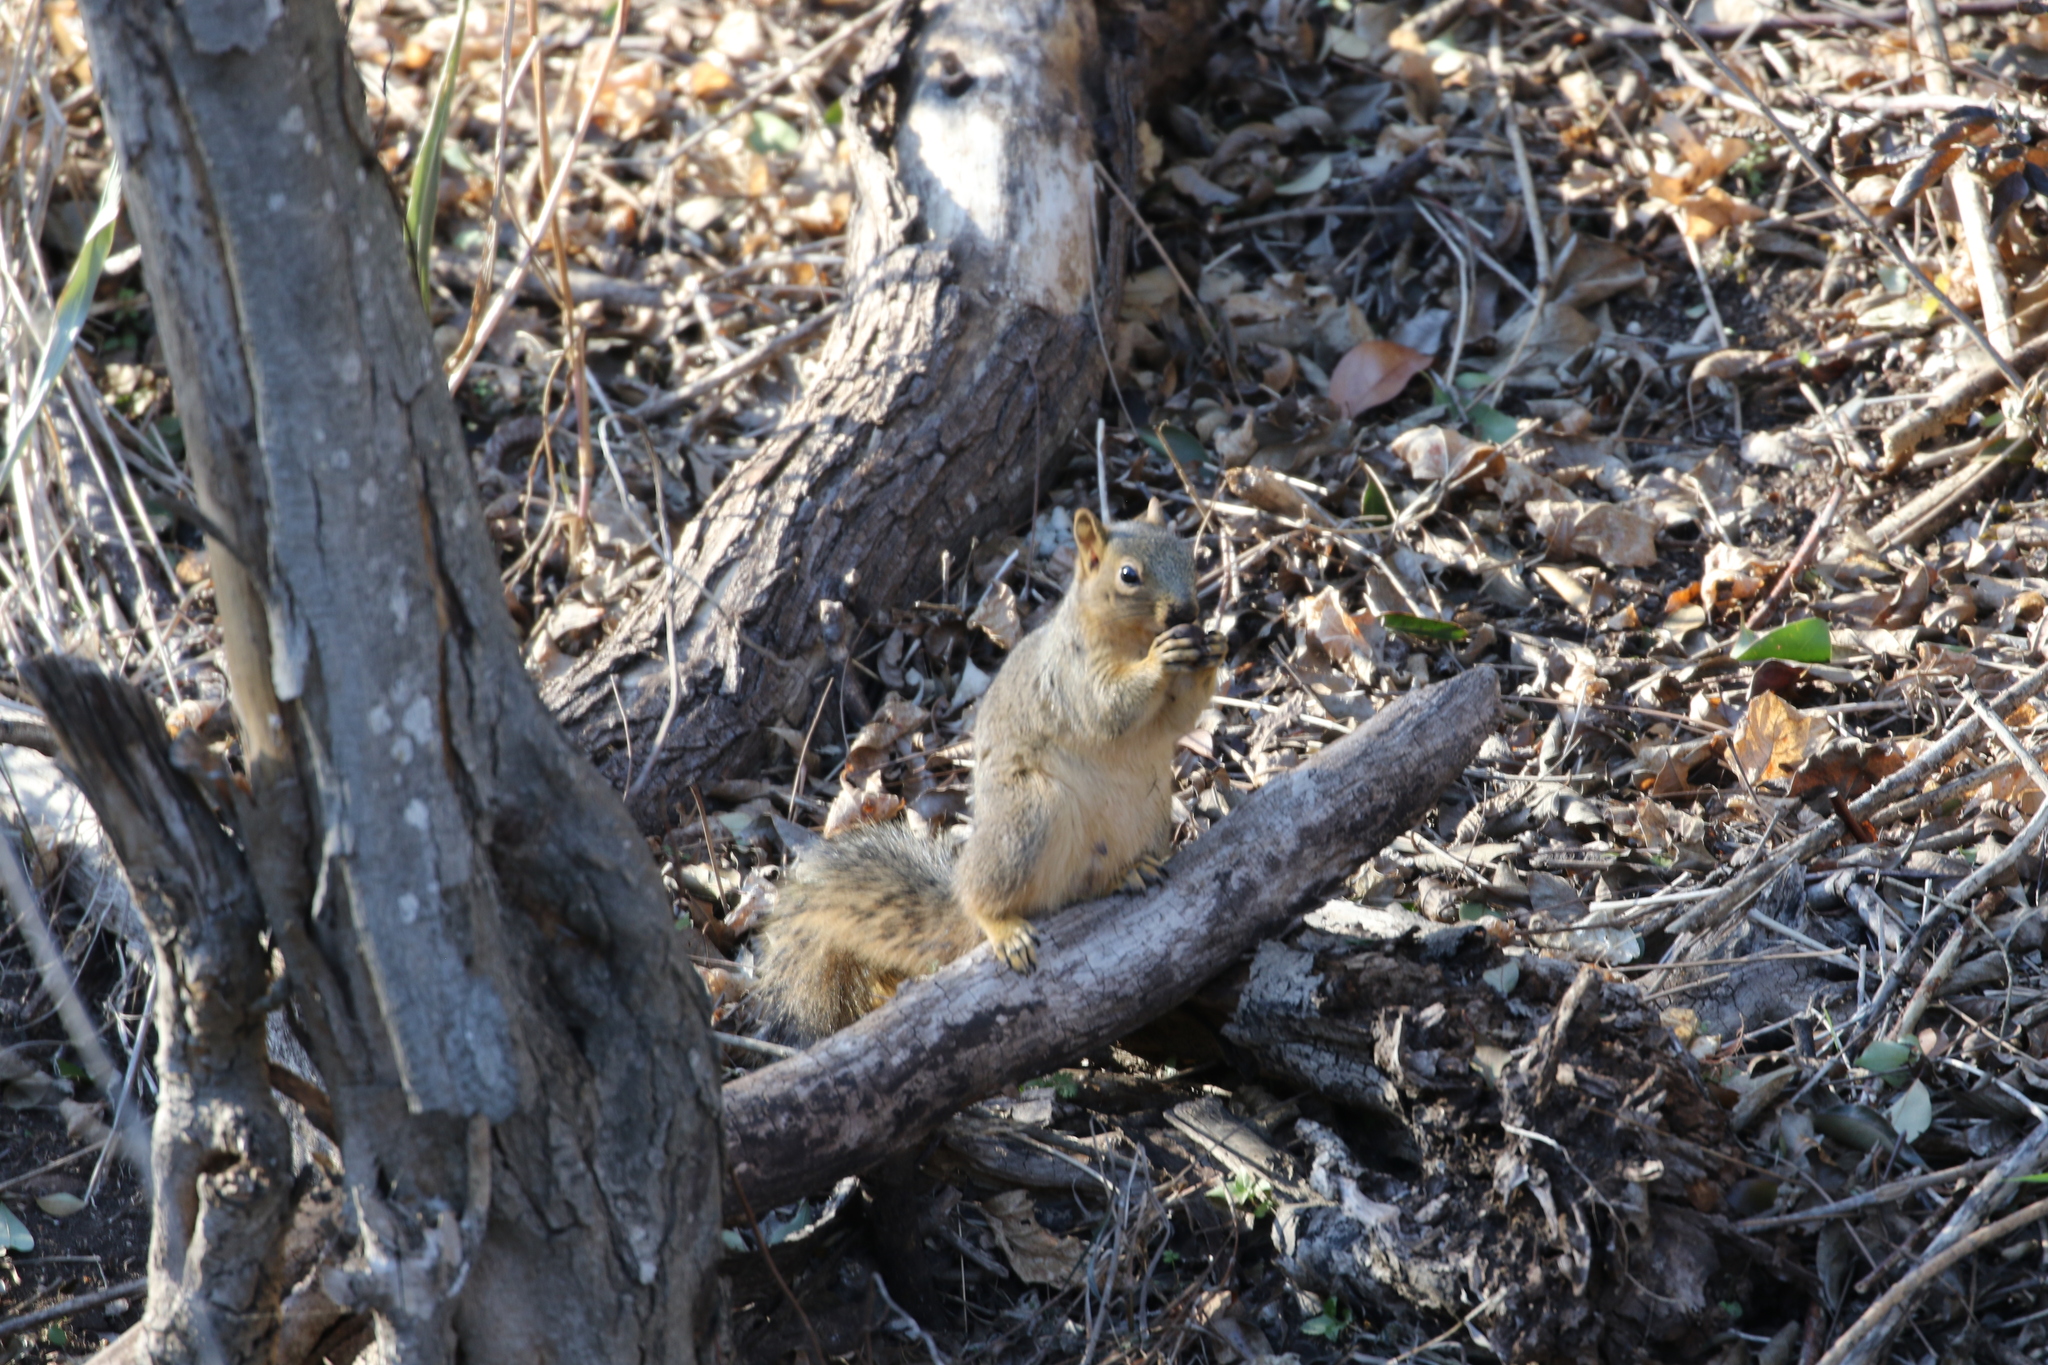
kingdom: Animalia
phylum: Chordata
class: Mammalia
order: Rodentia
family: Sciuridae
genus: Sciurus
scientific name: Sciurus niger
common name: Fox squirrel
